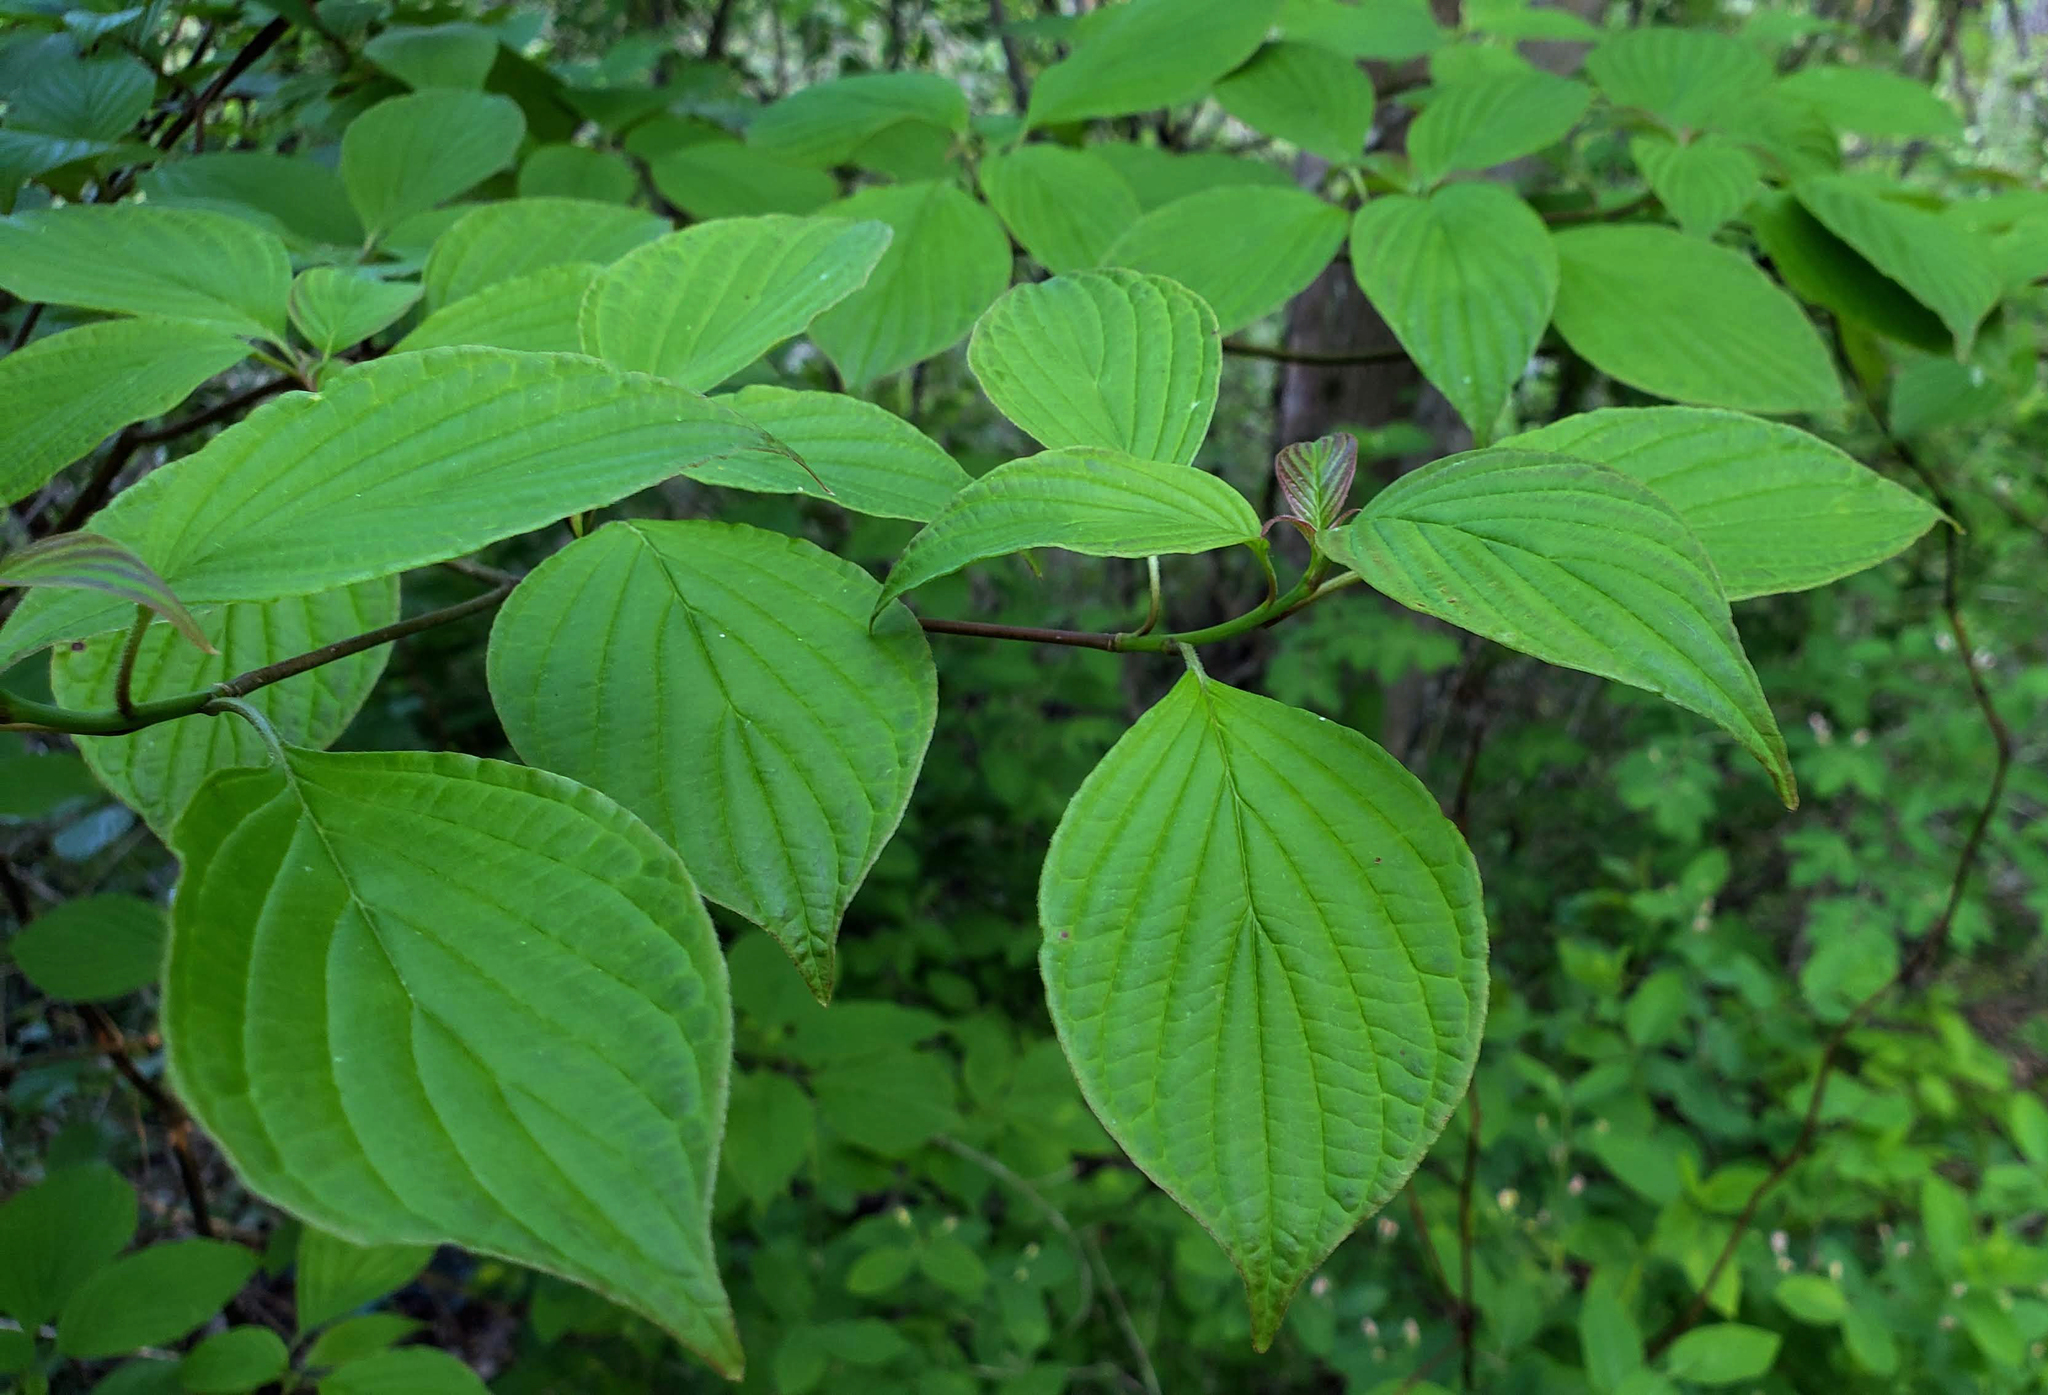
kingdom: Plantae
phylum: Tracheophyta
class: Magnoliopsida
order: Cornales
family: Cornaceae
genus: Cornus
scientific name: Cornus alternifolia
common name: Pagoda dogwood
